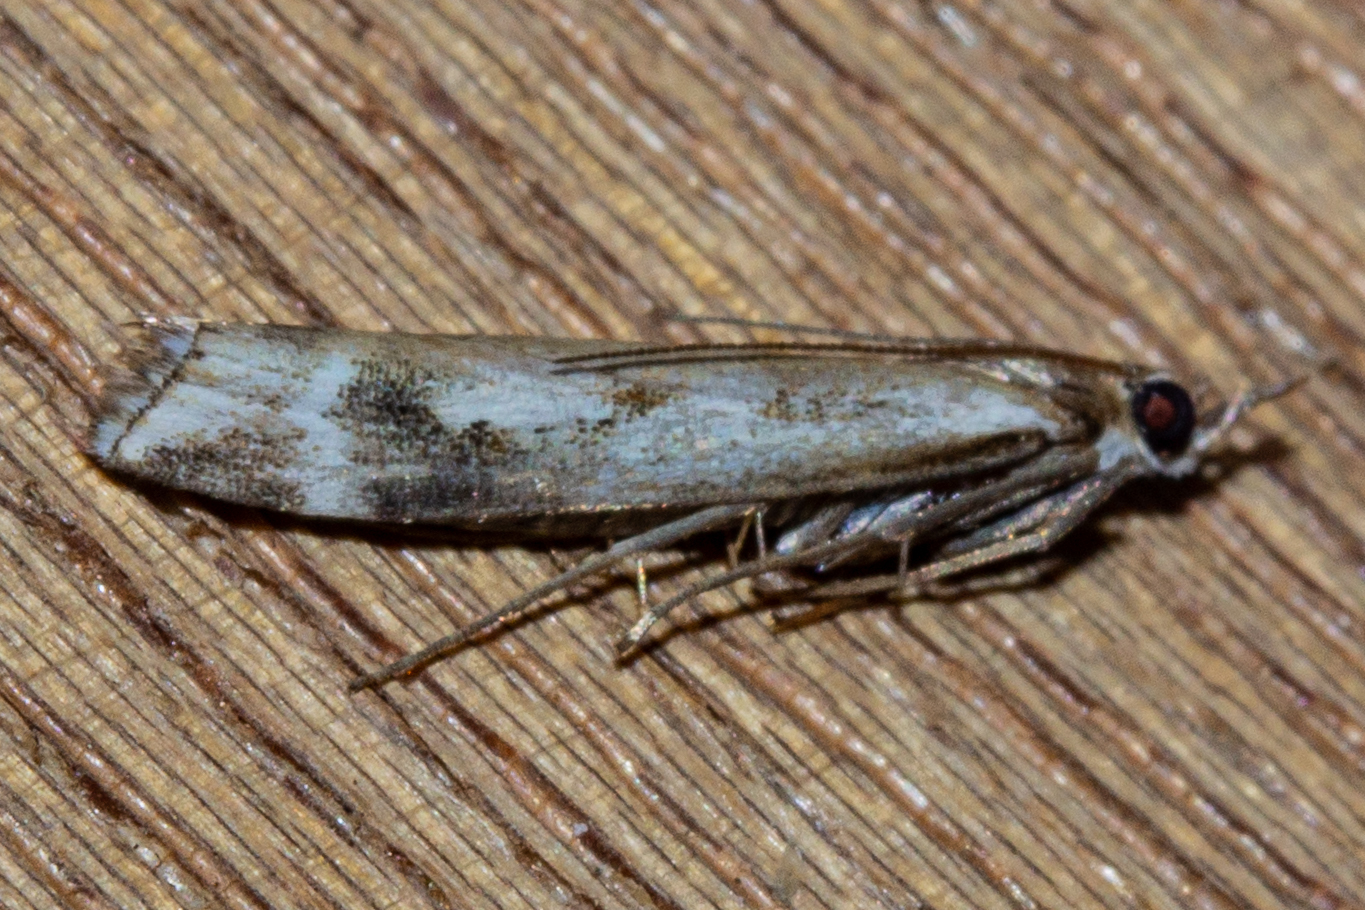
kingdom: Animalia
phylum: Arthropoda
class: Insecta
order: Lepidoptera
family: Crambidae
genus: Orocrambus
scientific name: Orocrambus vulgaris
